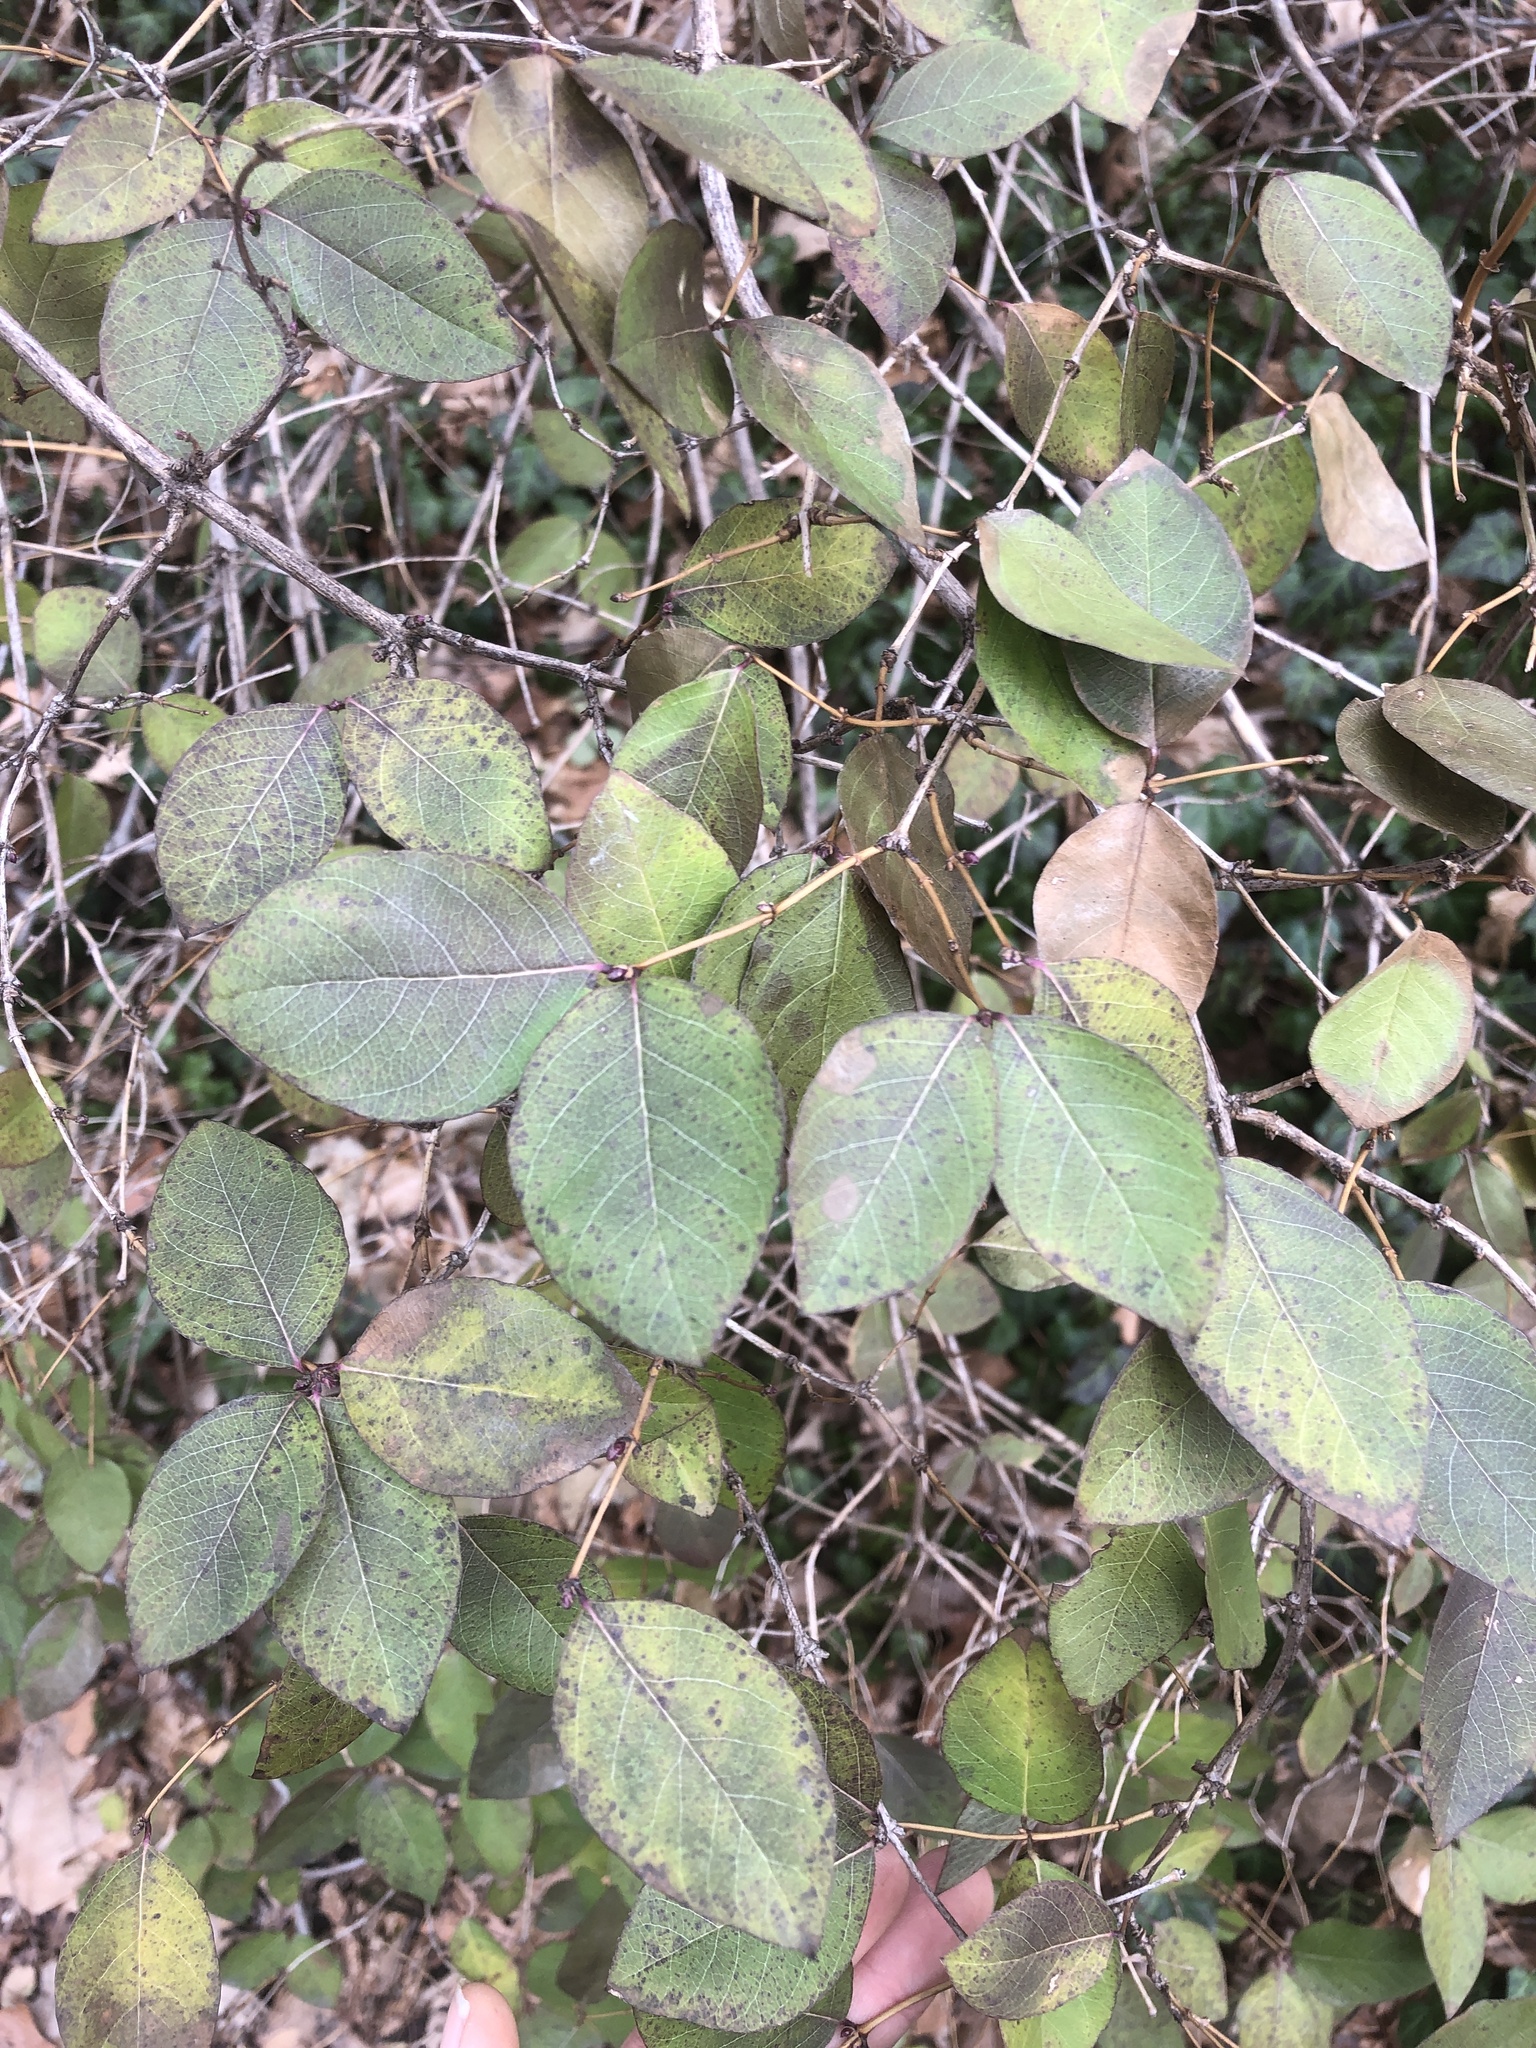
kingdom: Plantae
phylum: Tracheophyta
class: Magnoliopsida
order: Dipsacales
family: Caprifoliaceae
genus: Lonicera
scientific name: Lonicera fragrantissima
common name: Fragrant honeysuckle
